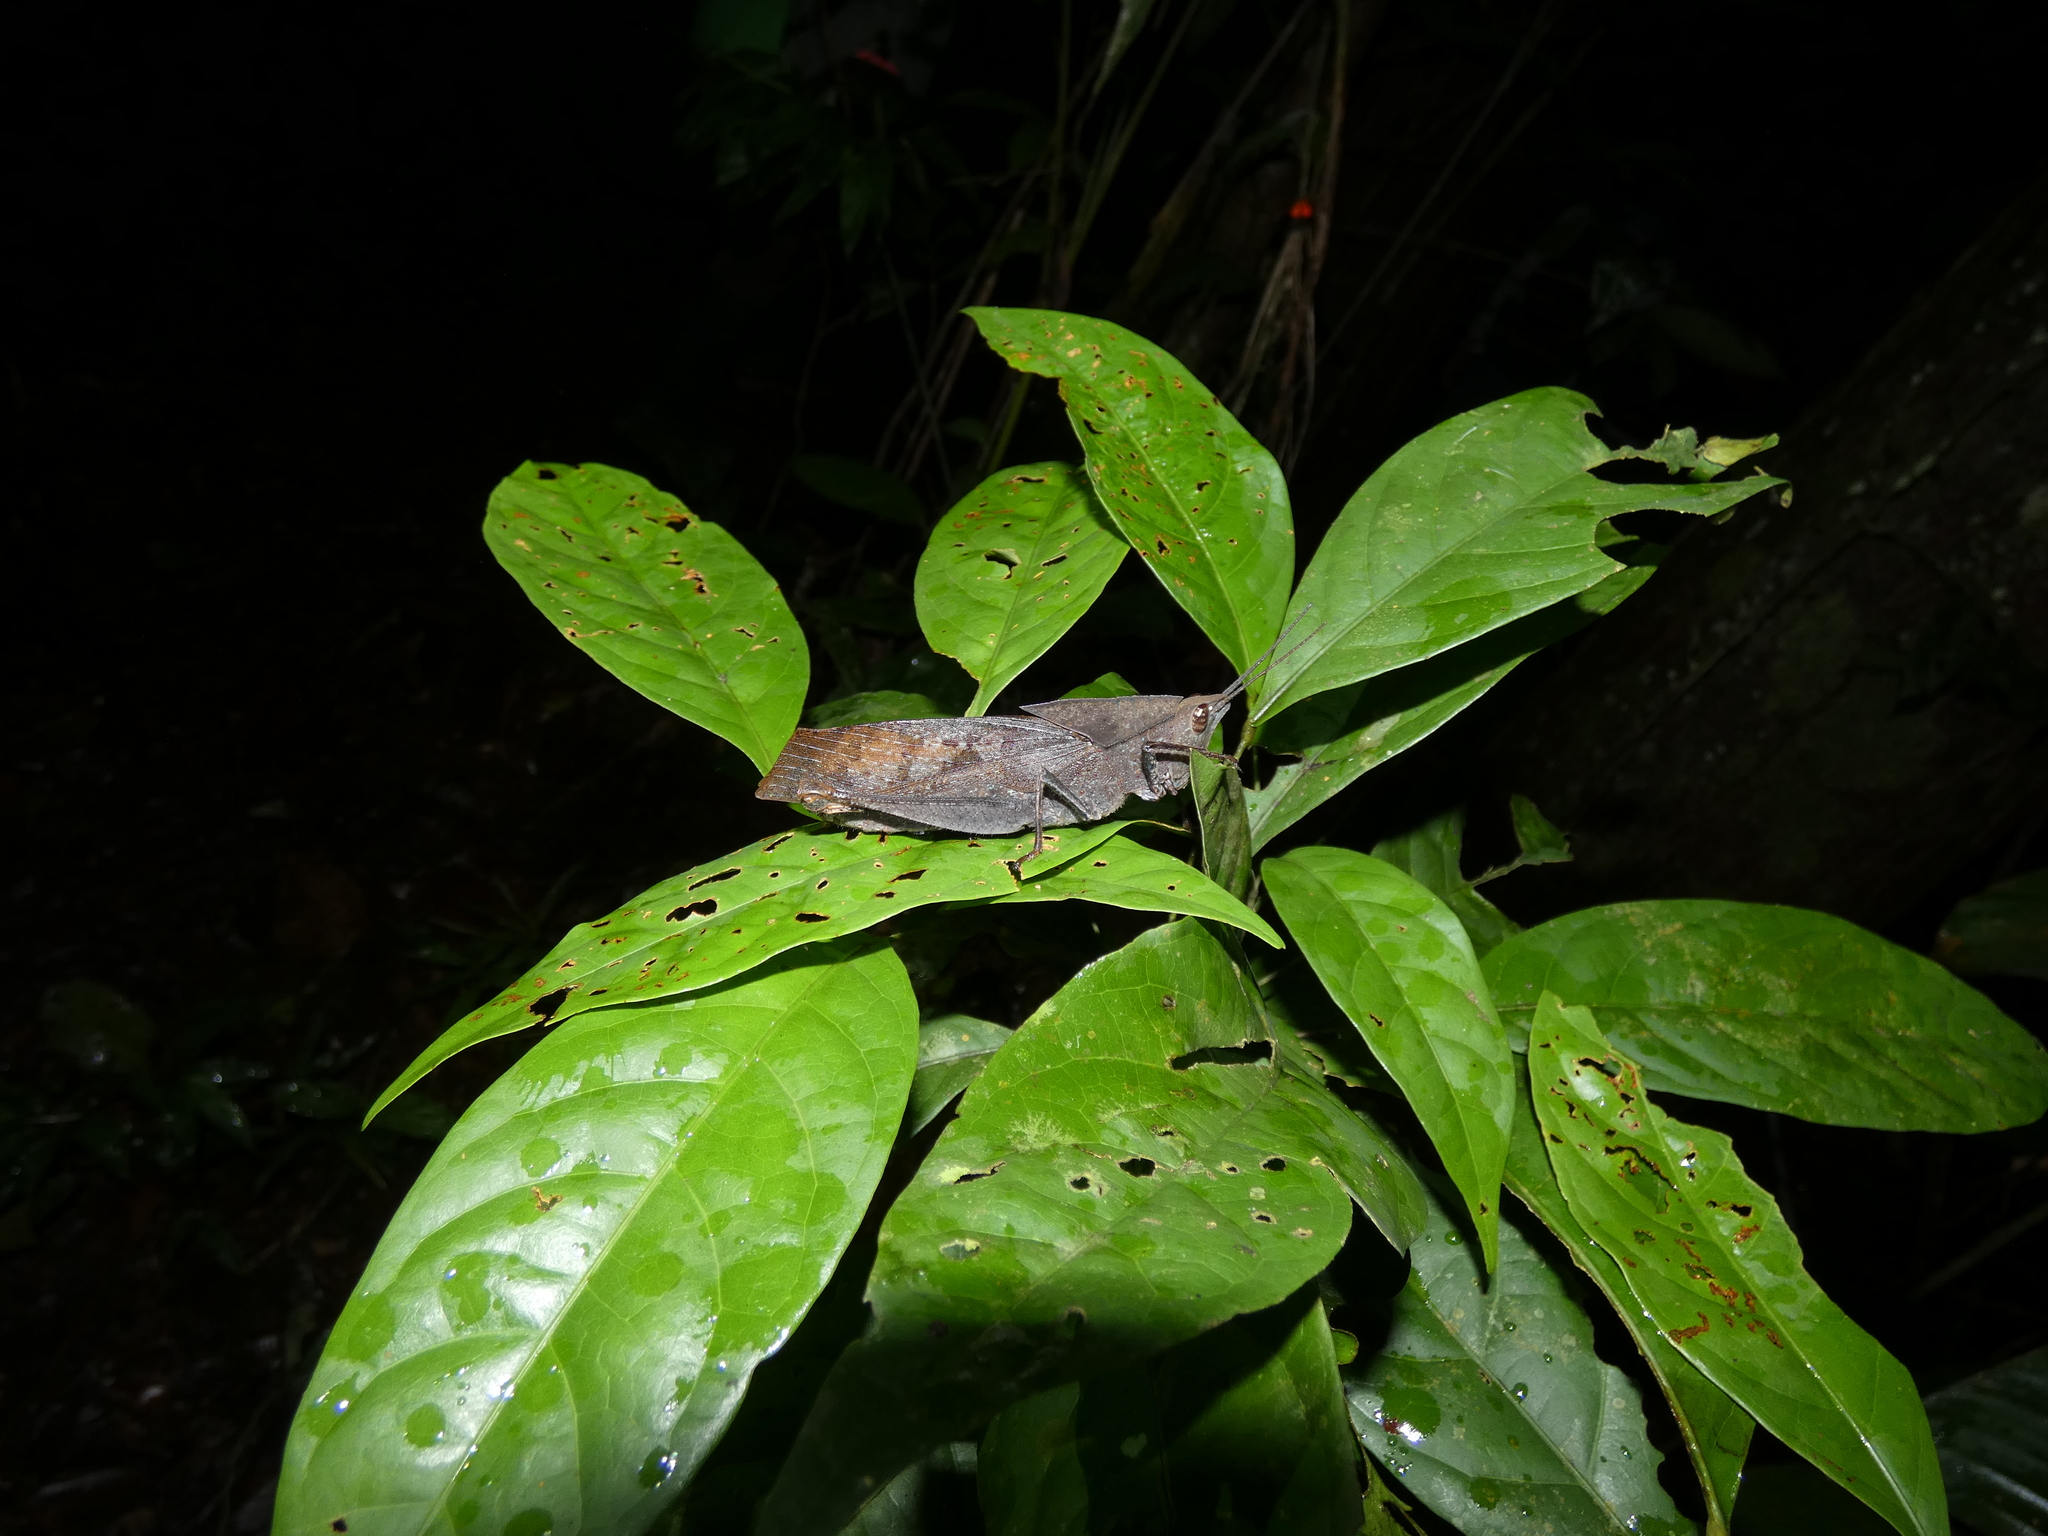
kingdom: Animalia
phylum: Arthropoda
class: Insecta
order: Orthoptera
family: Romaleidae
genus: Colpolopha
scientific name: Colpolopha latipennis
